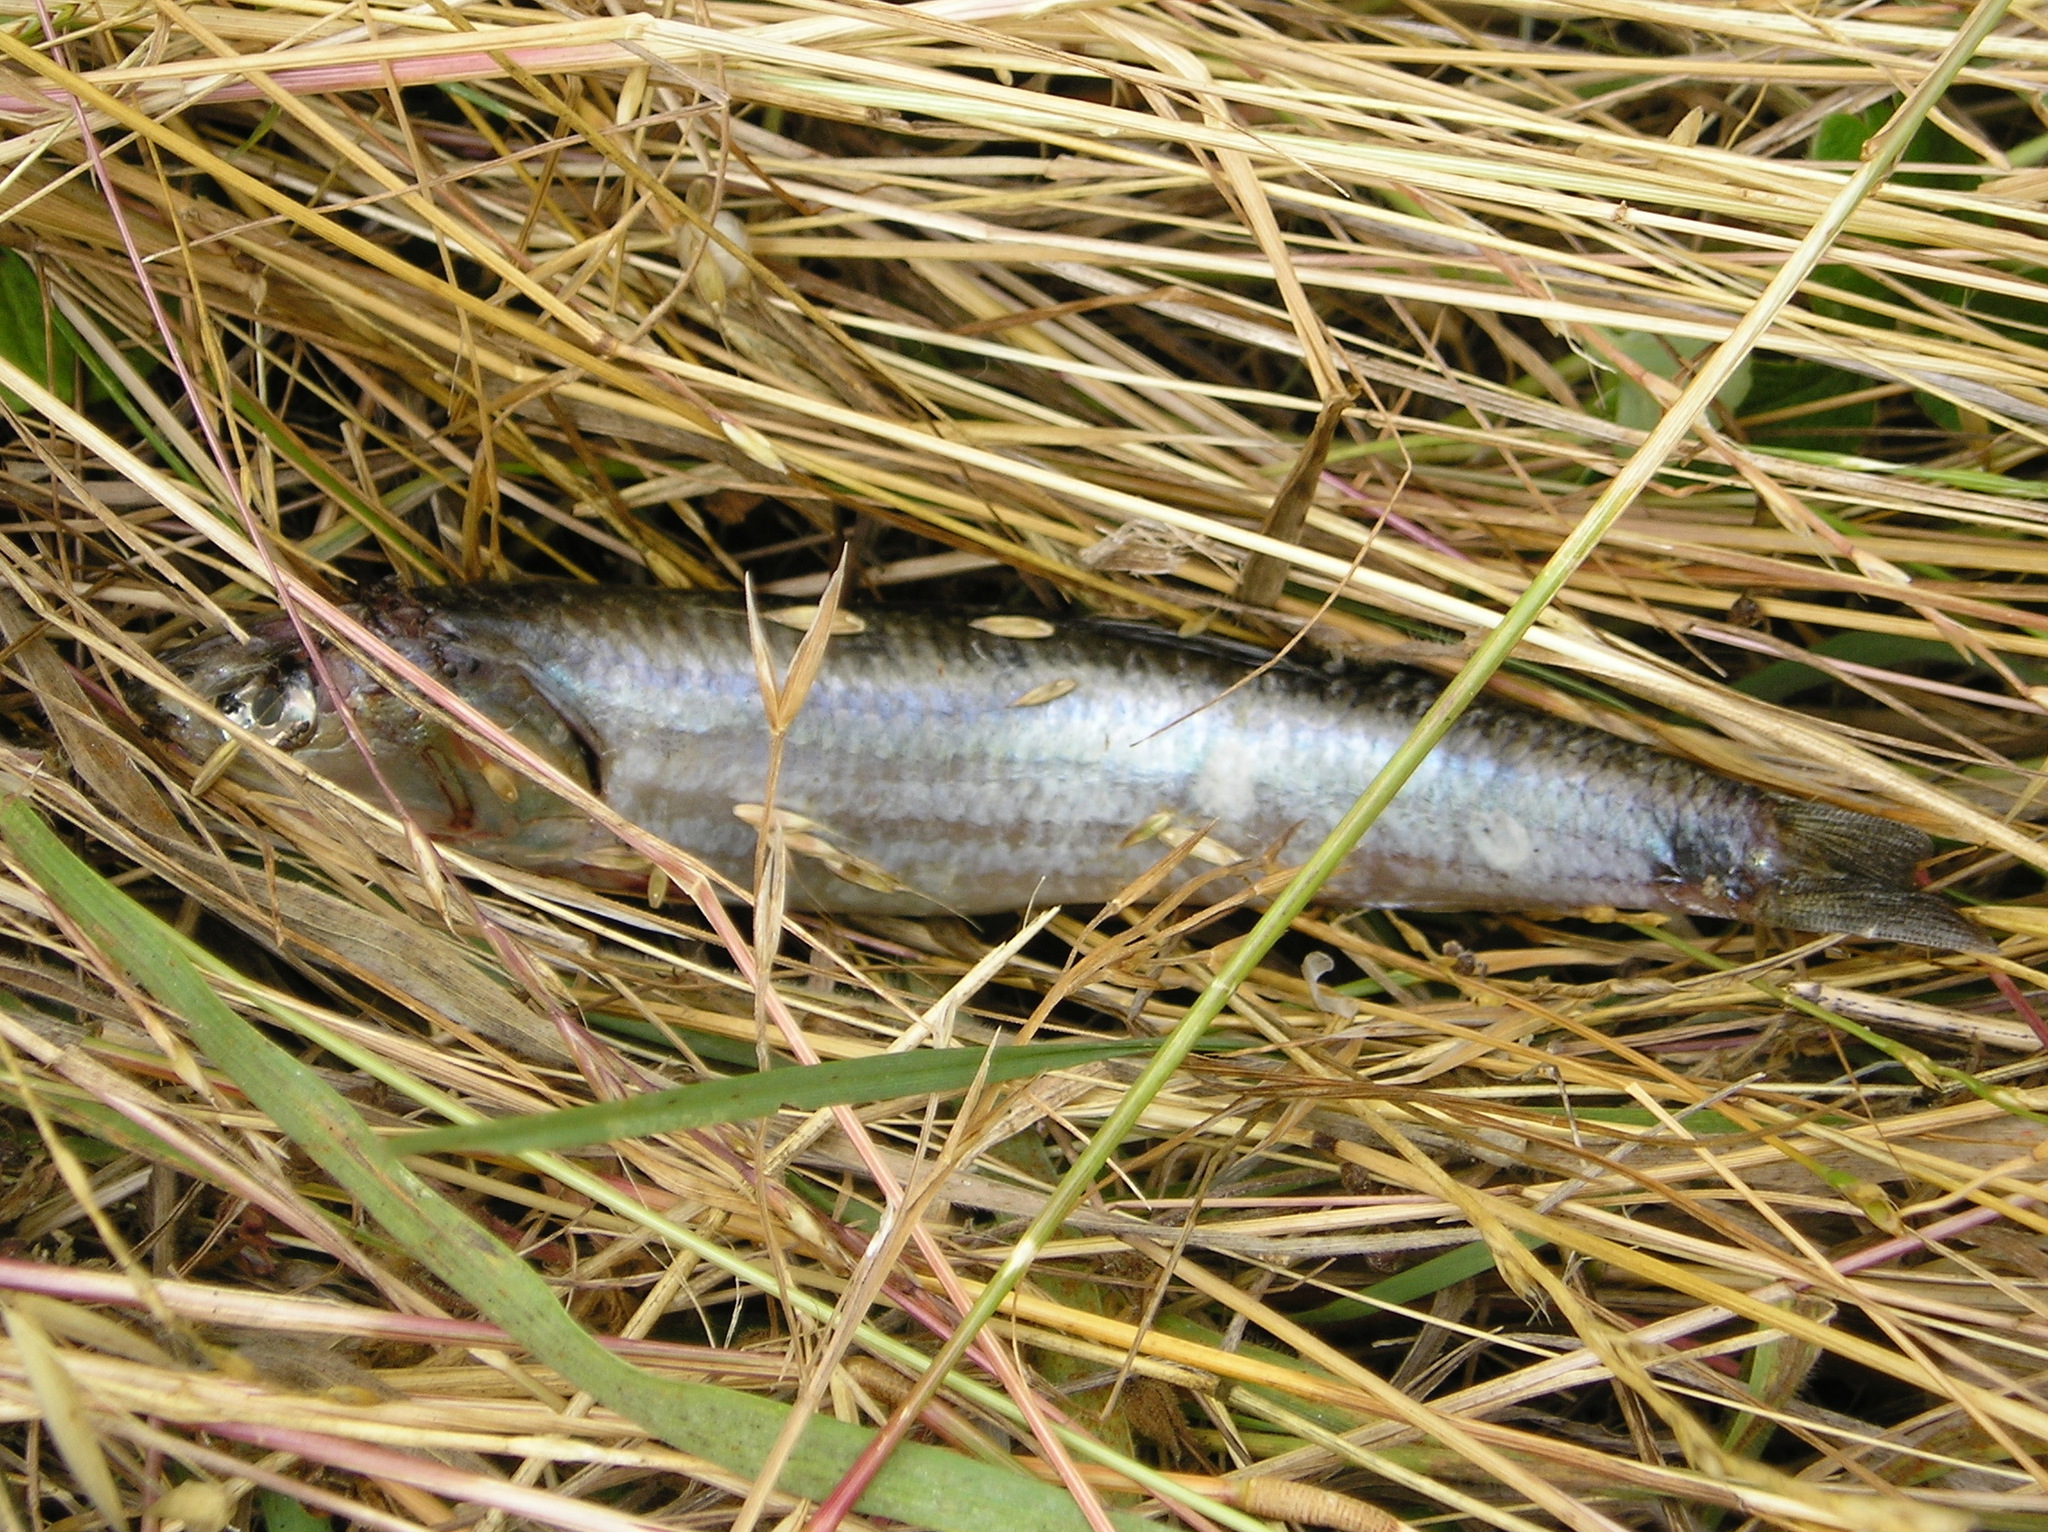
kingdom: Animalia
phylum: Chordata
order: Clupeiformes
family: Engraulidae
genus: Engraulis
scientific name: Engraulis mordax
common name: Northern anchovy
